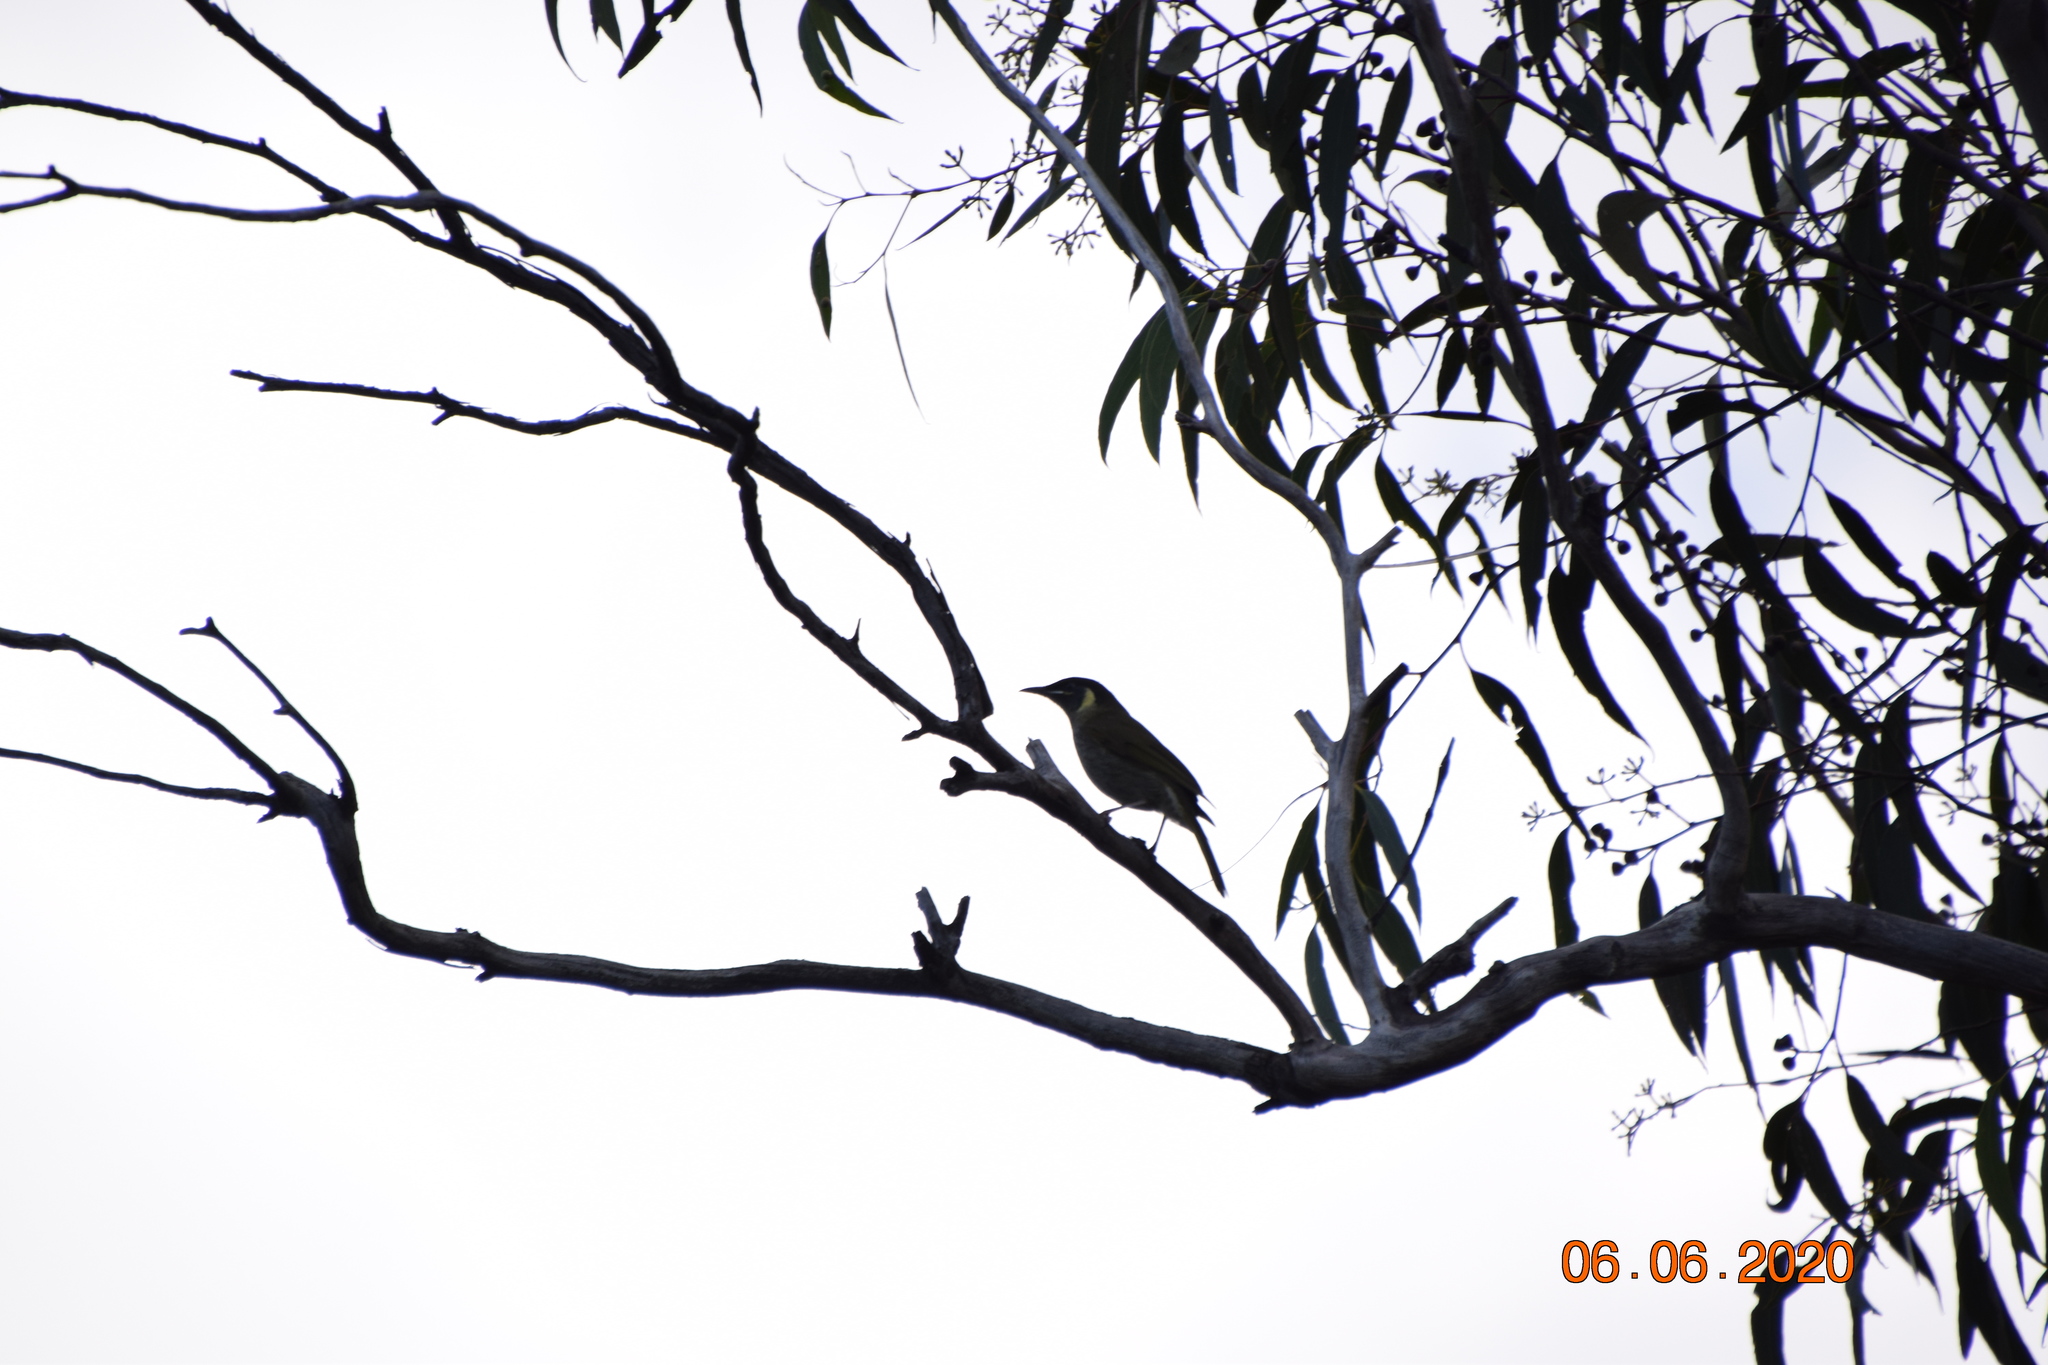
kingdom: Animalia
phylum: Chordata
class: Aves
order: Passeriformes
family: Meliphagidae
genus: Meliphaga
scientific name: Meliphaga lewinii
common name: Lewin's honeyeater
